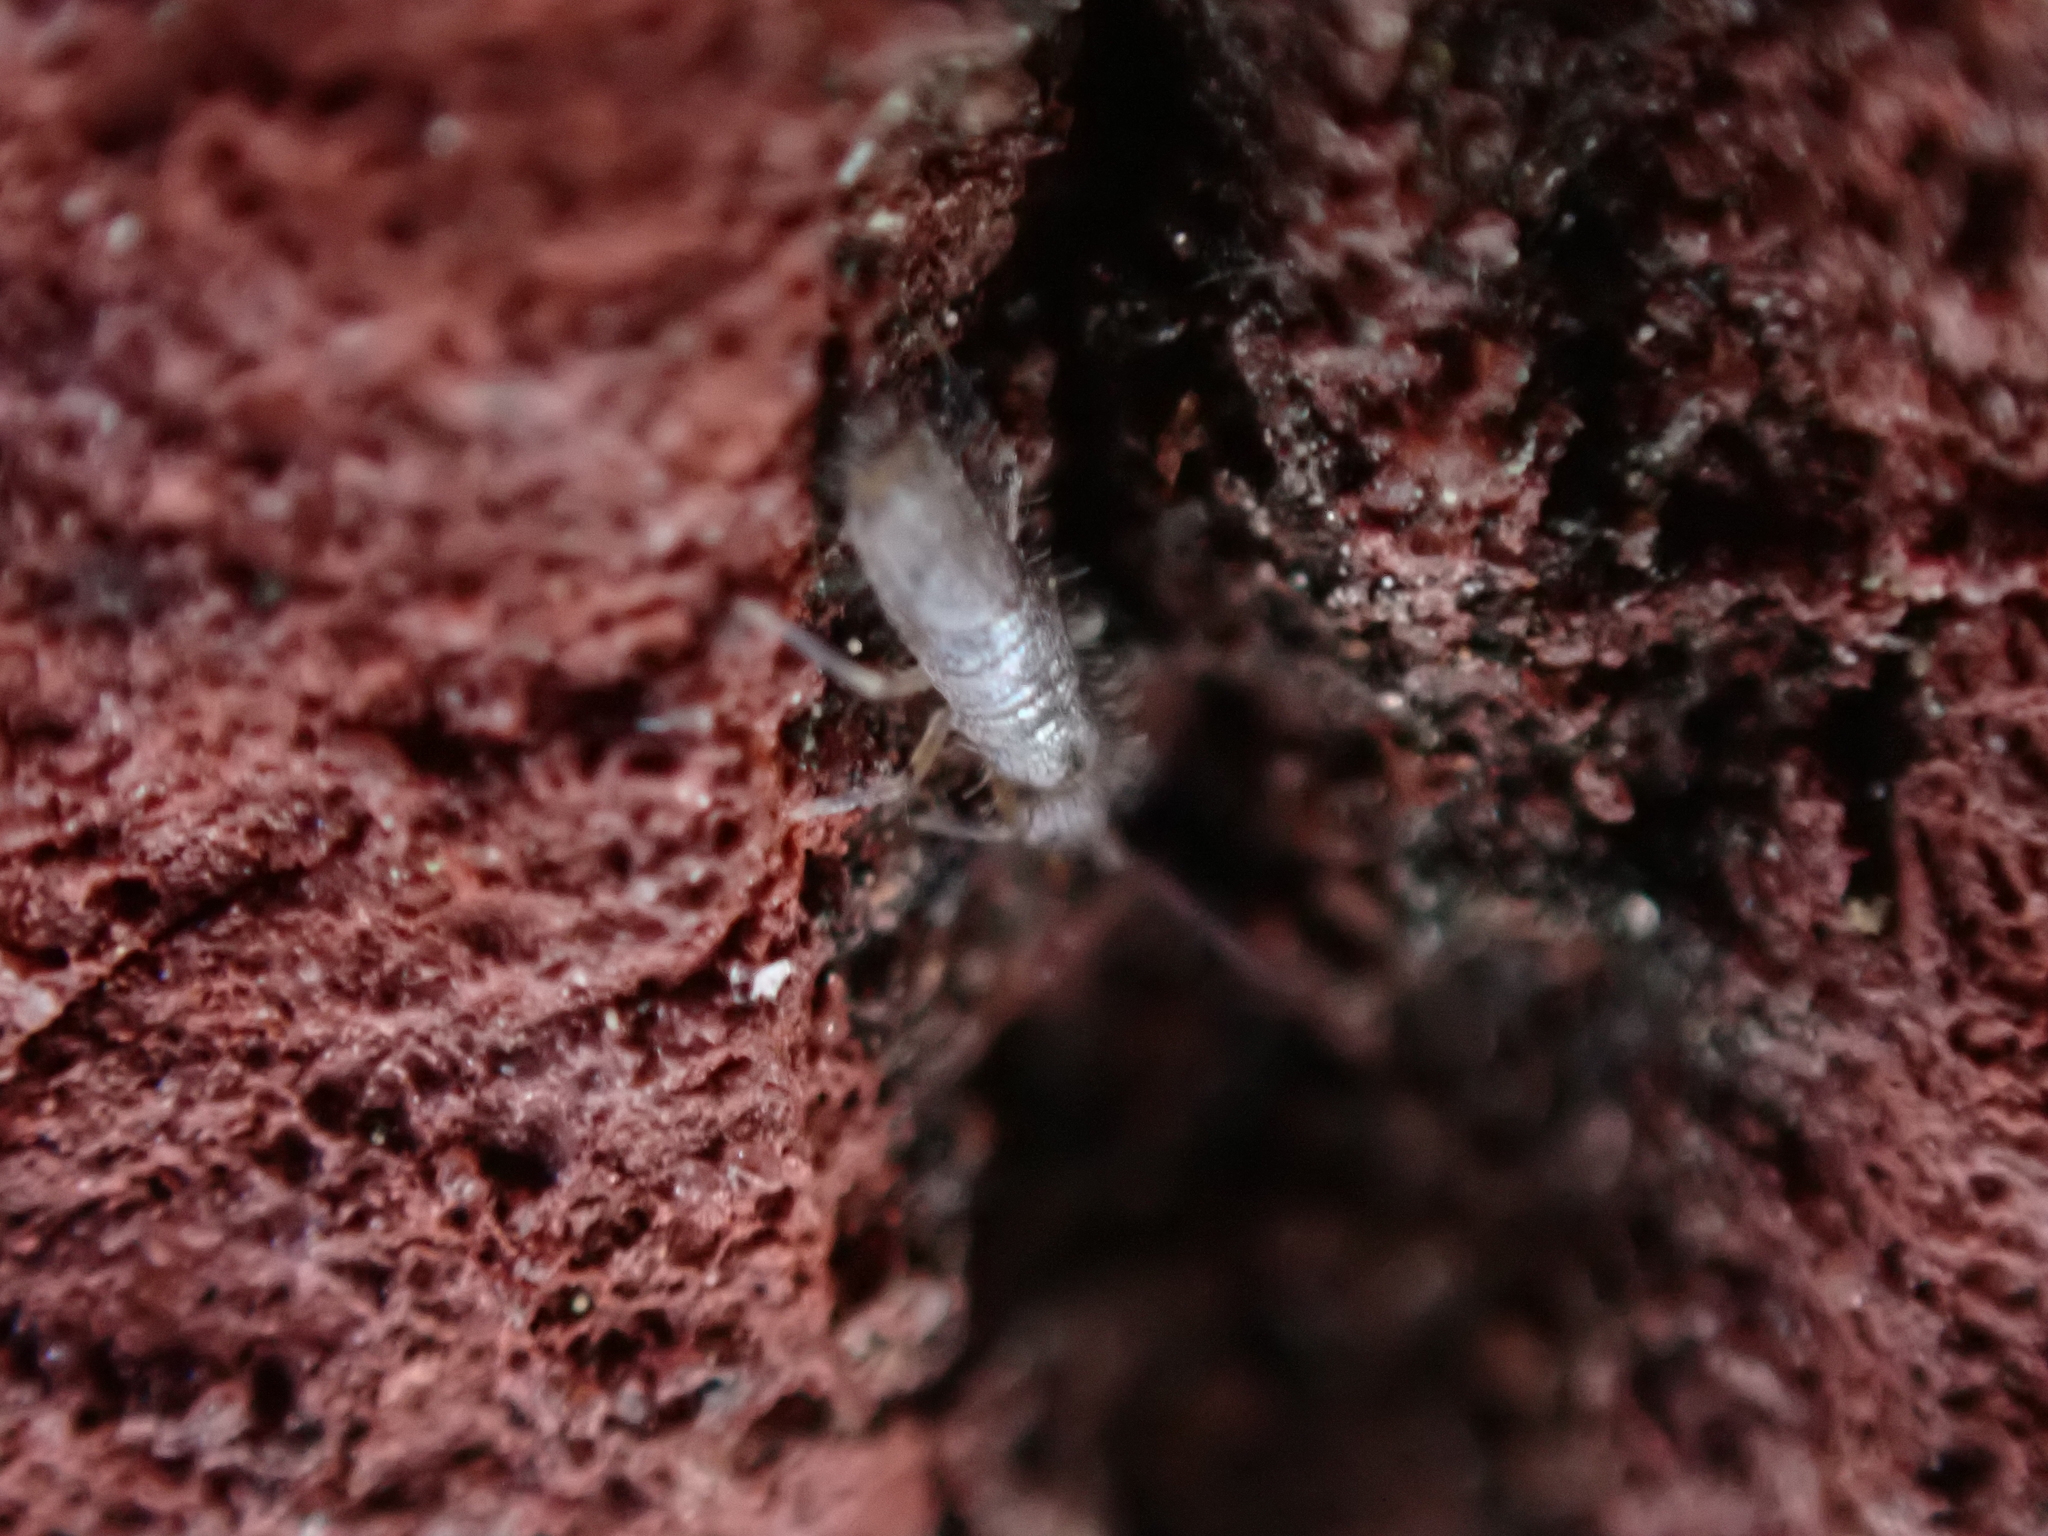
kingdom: Animalia
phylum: Arthropoda
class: Collembola
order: Entomobryomorpha
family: Entomobryidae
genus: Willowsia
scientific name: Willowsia nigromaculata
